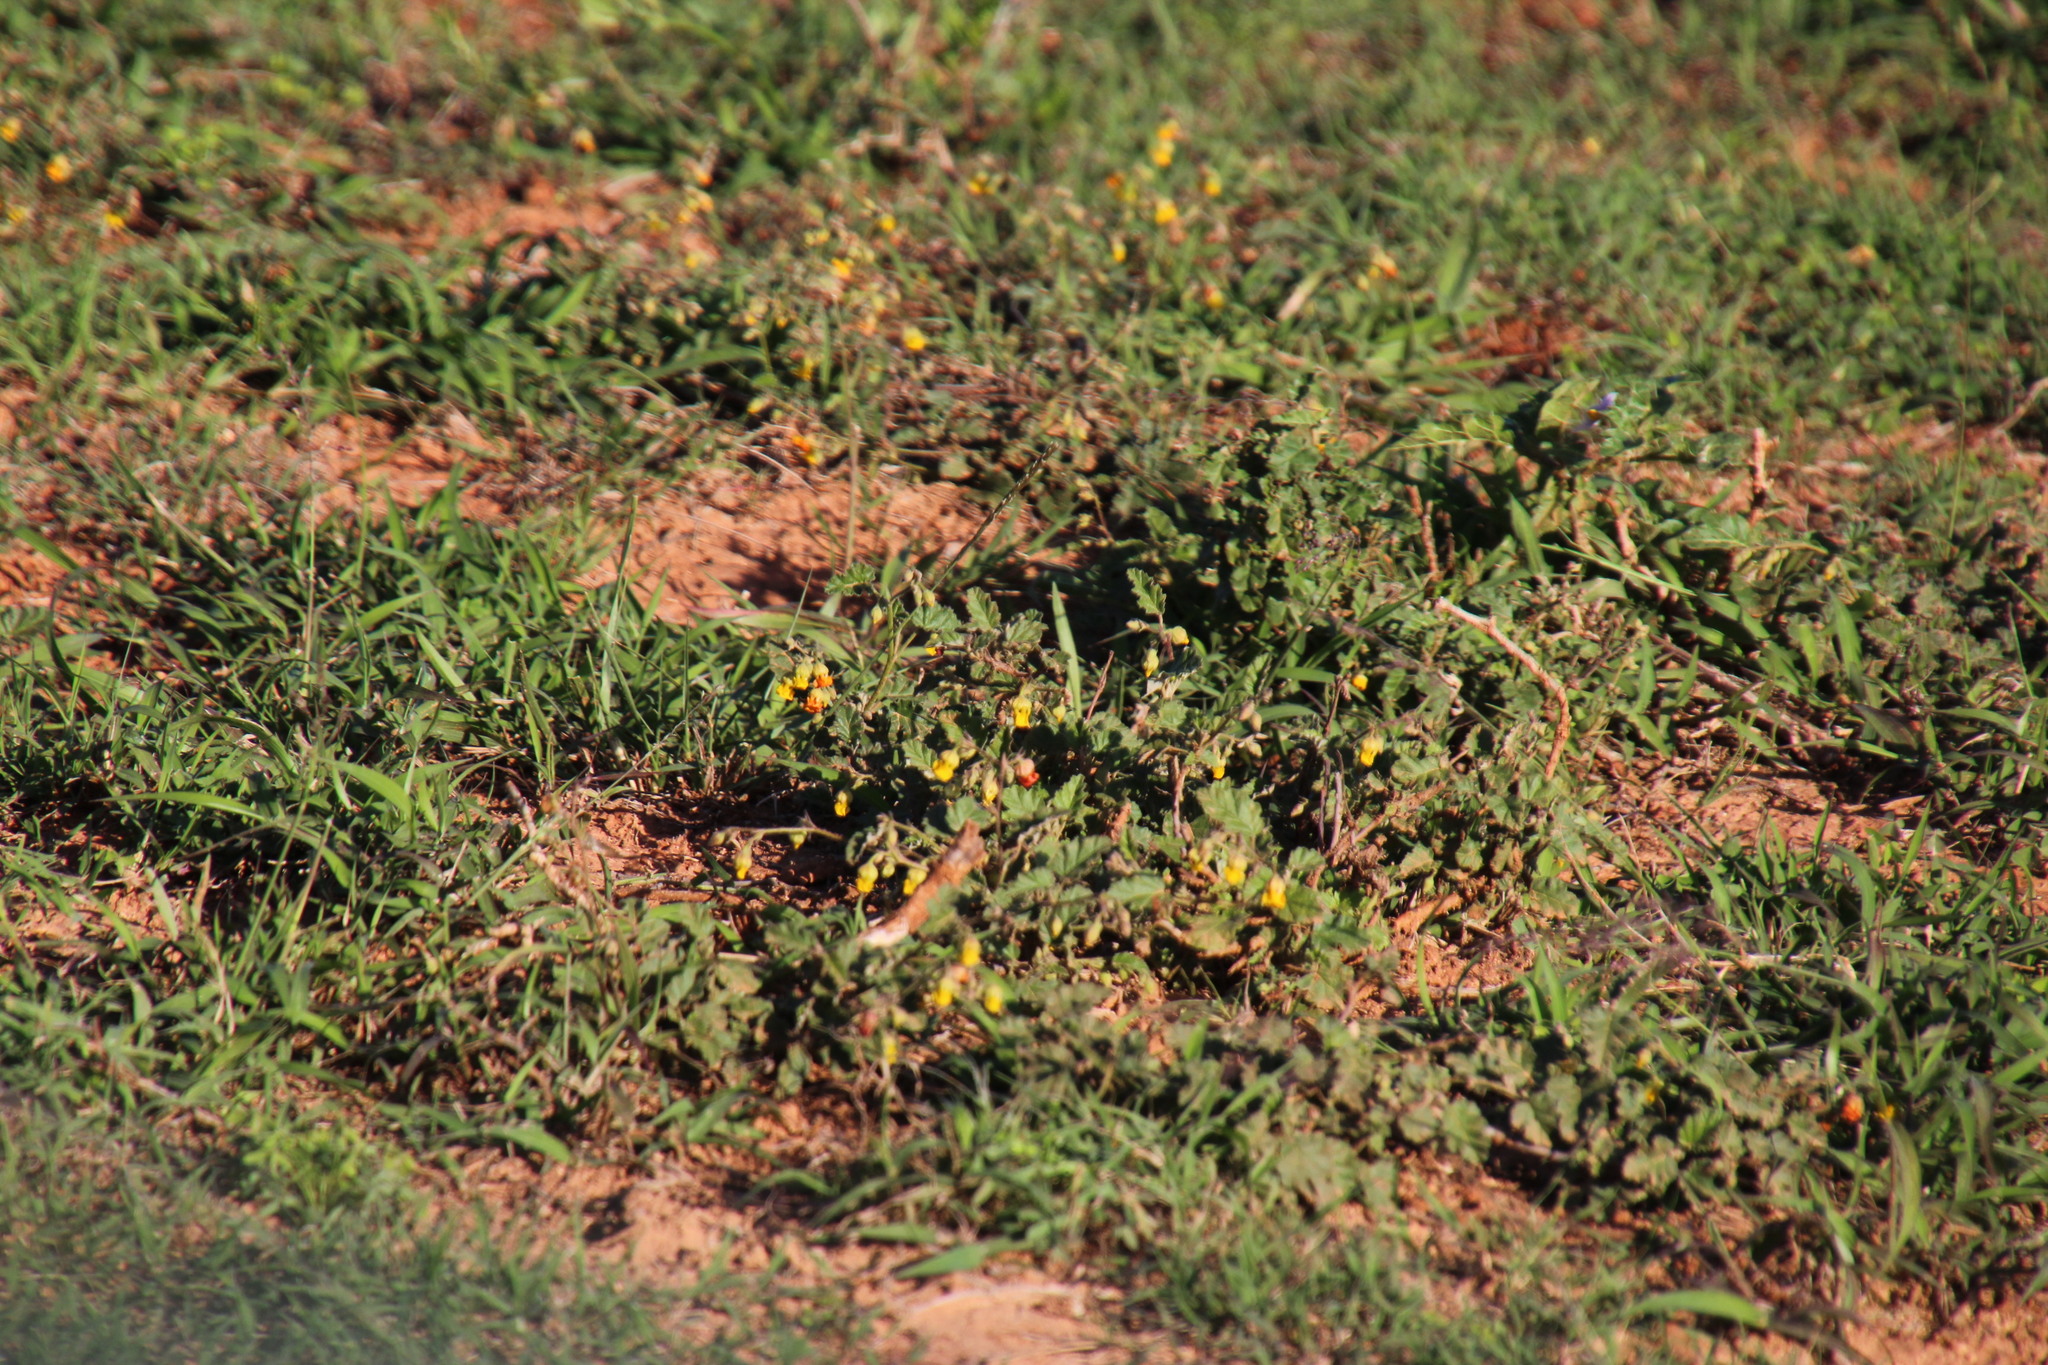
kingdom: Plantae
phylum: Tracheophyta
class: Magnoliopsida
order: Malvales
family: Malvaceae
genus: Hermannia
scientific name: Hermannia althaeoides
